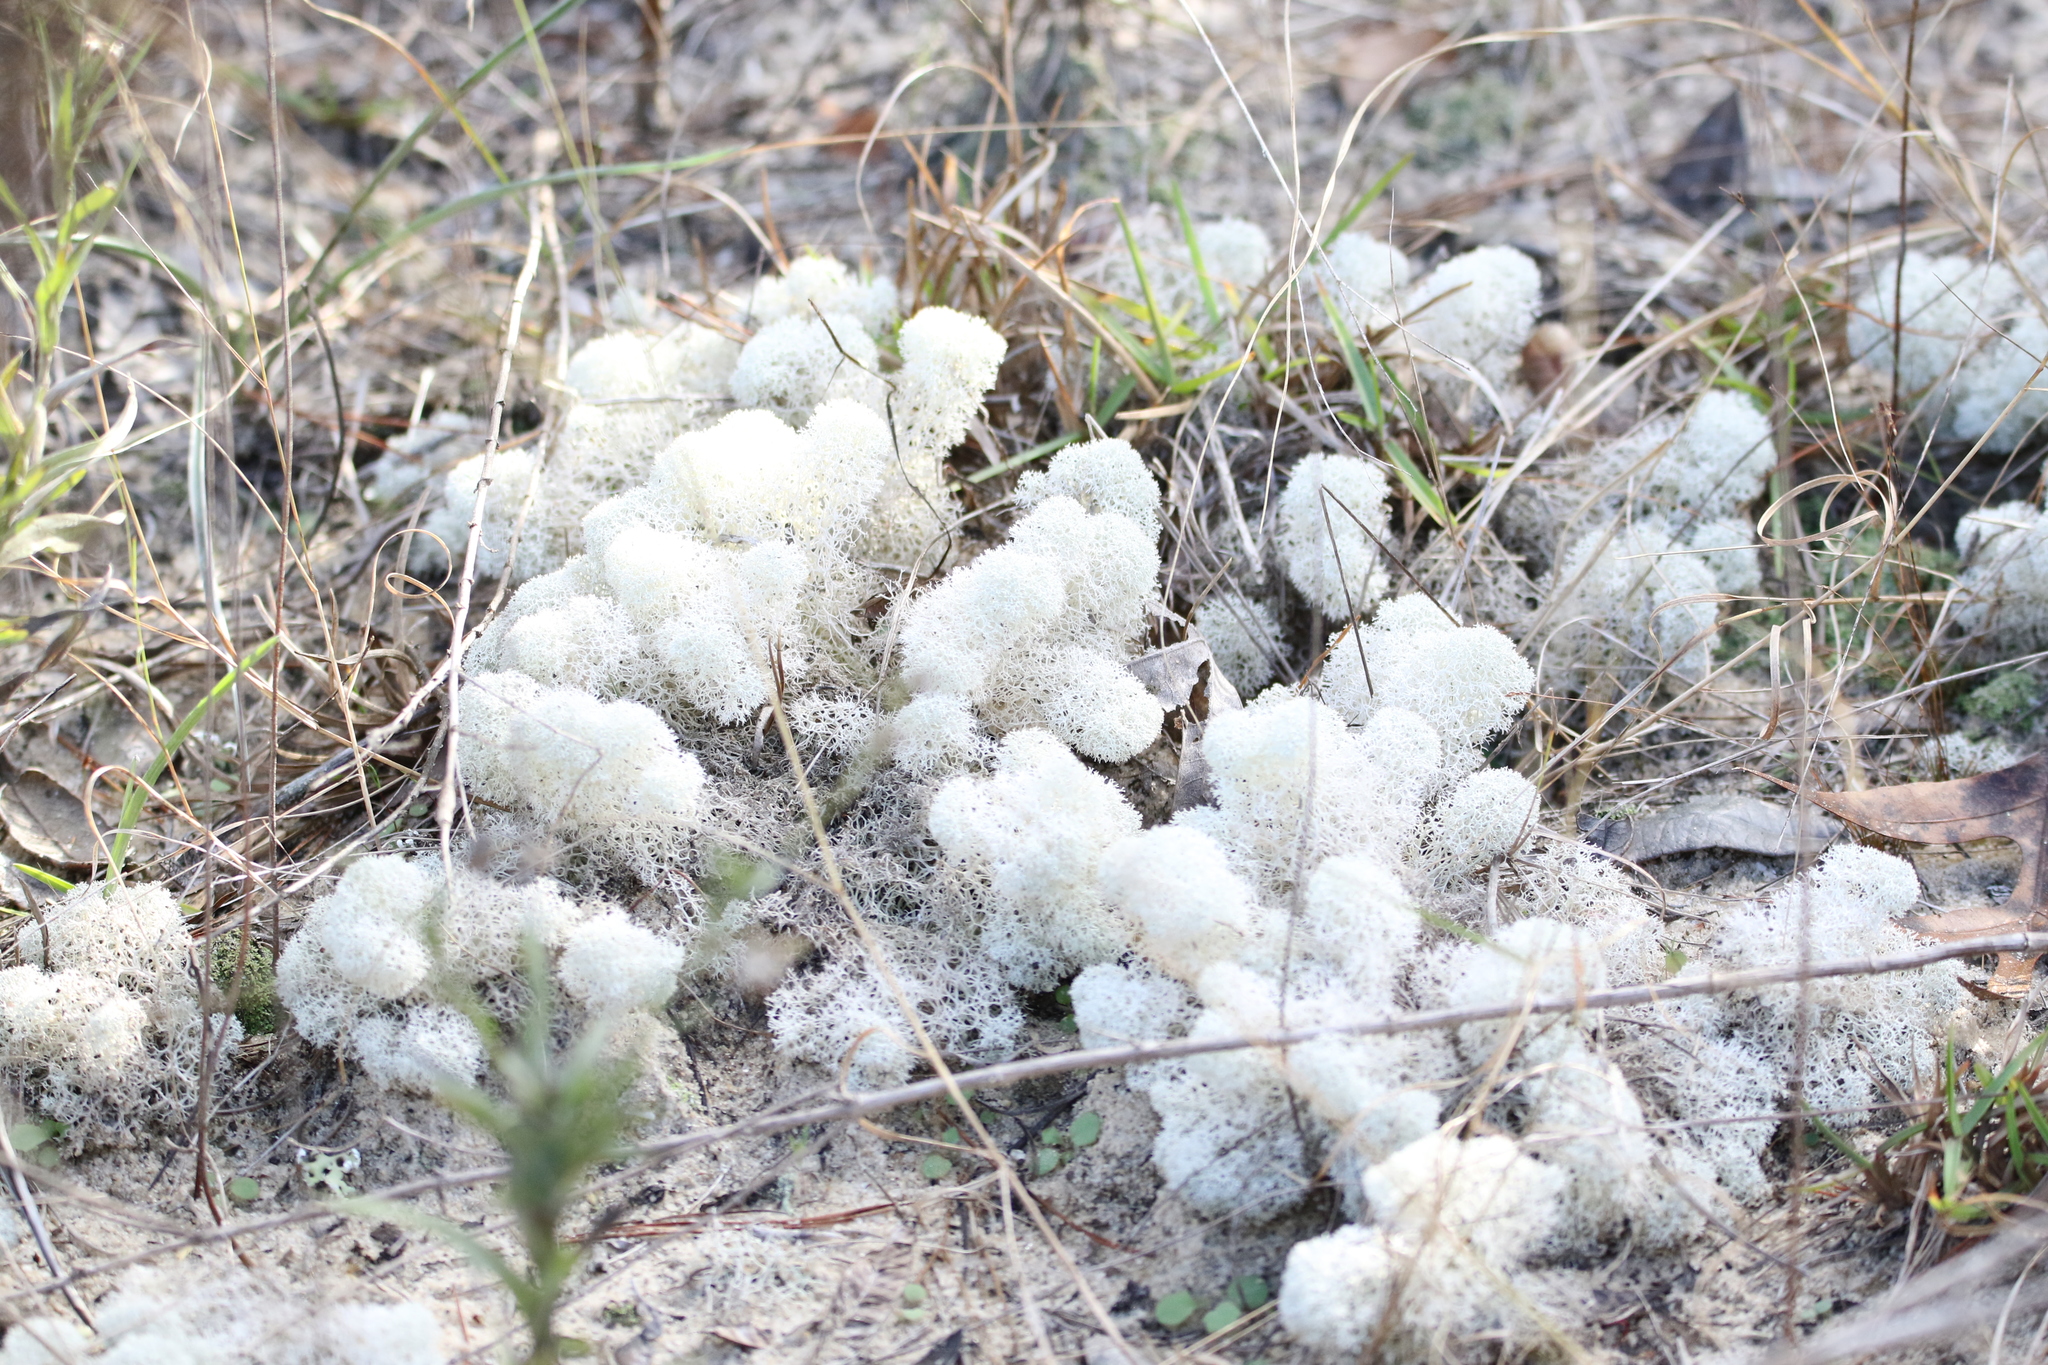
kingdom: Fungi
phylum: Ascomycota
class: Lecanoromycetes
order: Lecanorales
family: Cladoniaceae
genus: Cladonia
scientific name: Cladonia evansii
